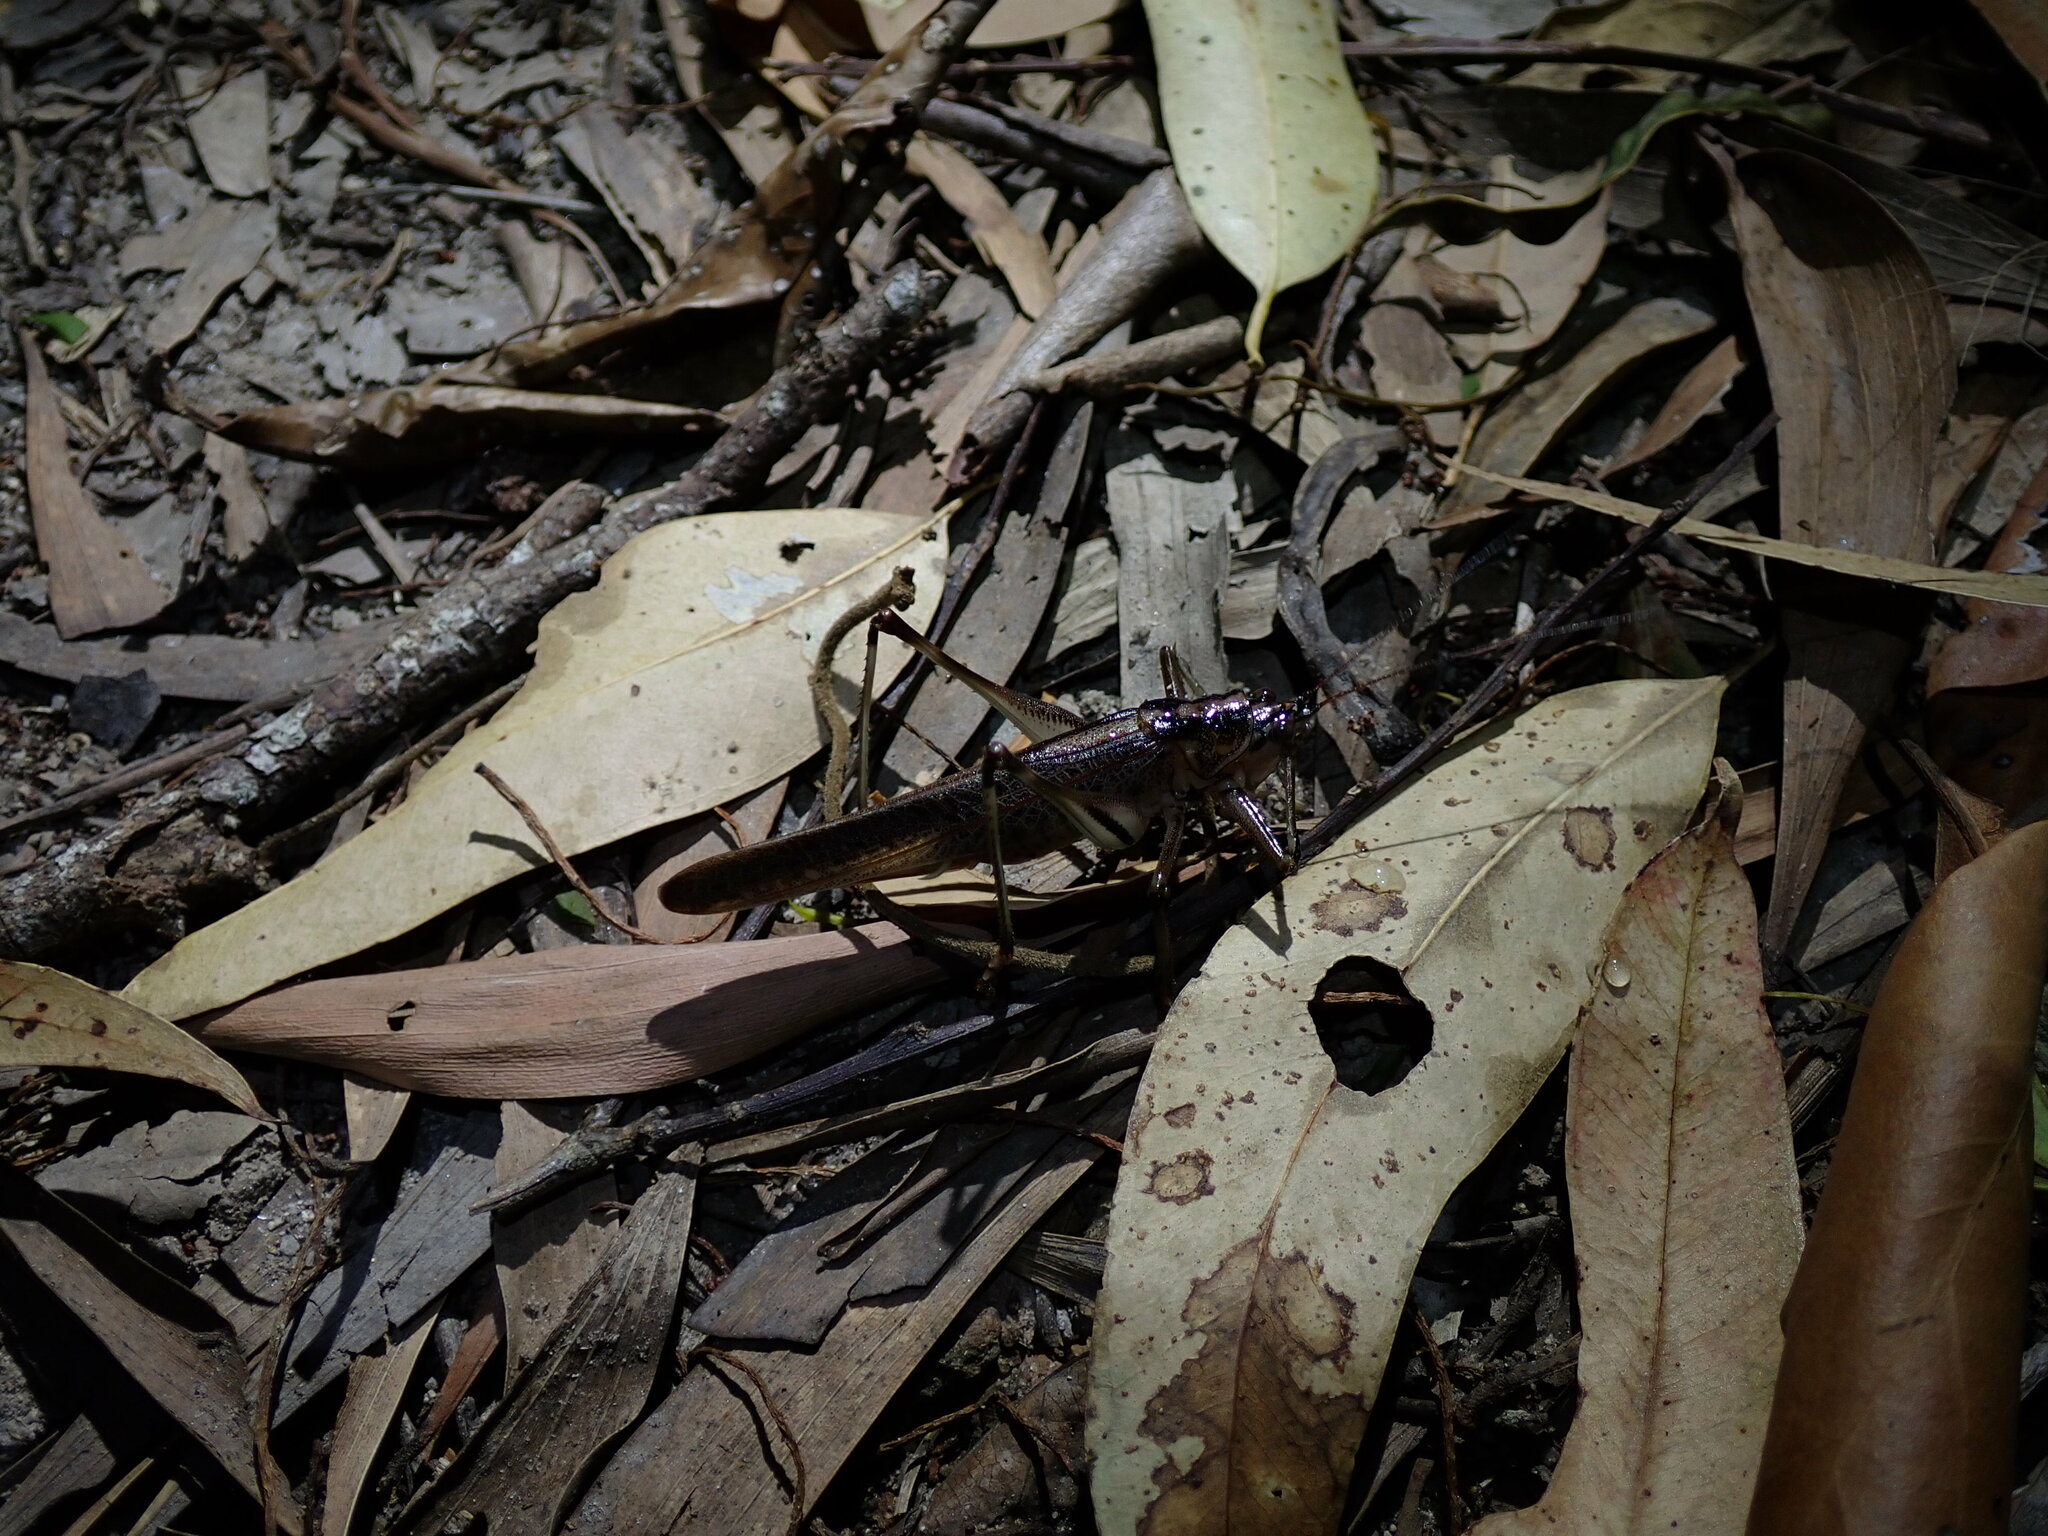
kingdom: Animalia
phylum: Arthropoda
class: Insecta
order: Orthoptera
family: Tettigoniidae
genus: Nicsara
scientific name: Nicsara bifasciata
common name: Striped nicsara
